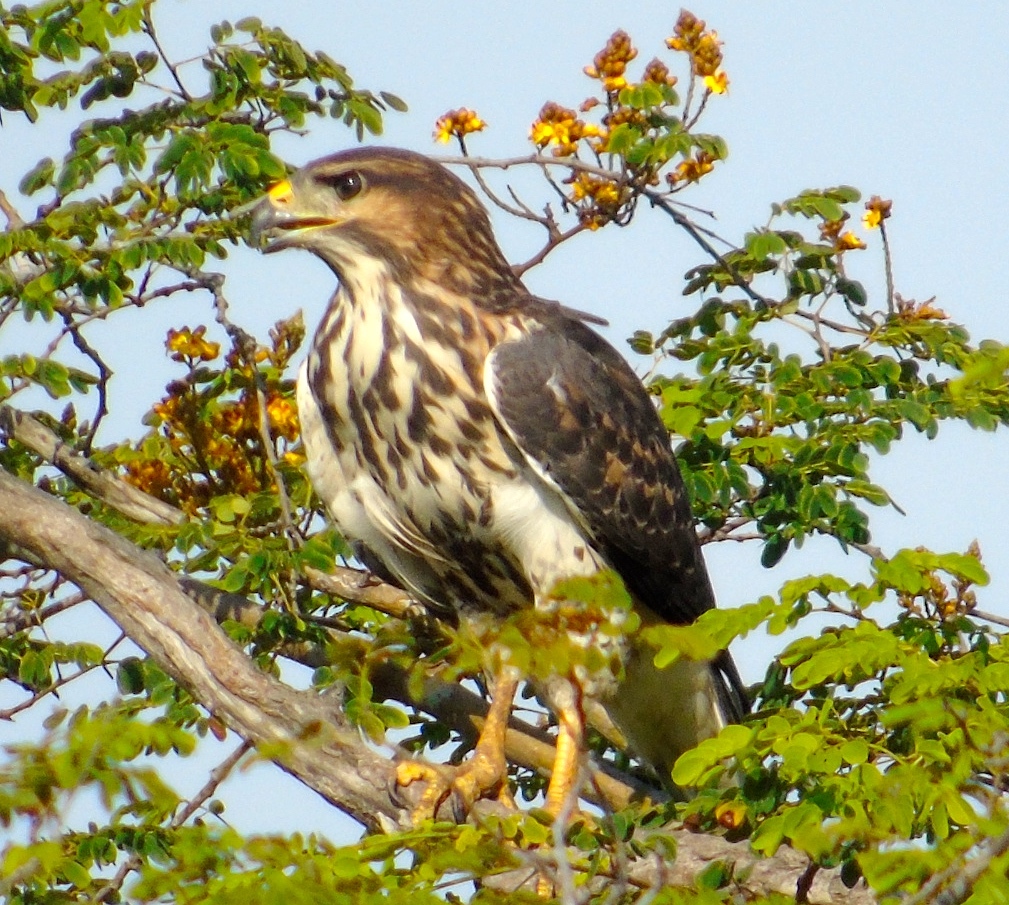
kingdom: Animalia
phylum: Chordata
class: Aves
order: Accipitriformes
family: Accipitridae
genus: Buteo
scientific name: Buteo nitidus
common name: Grey-lined hawk
